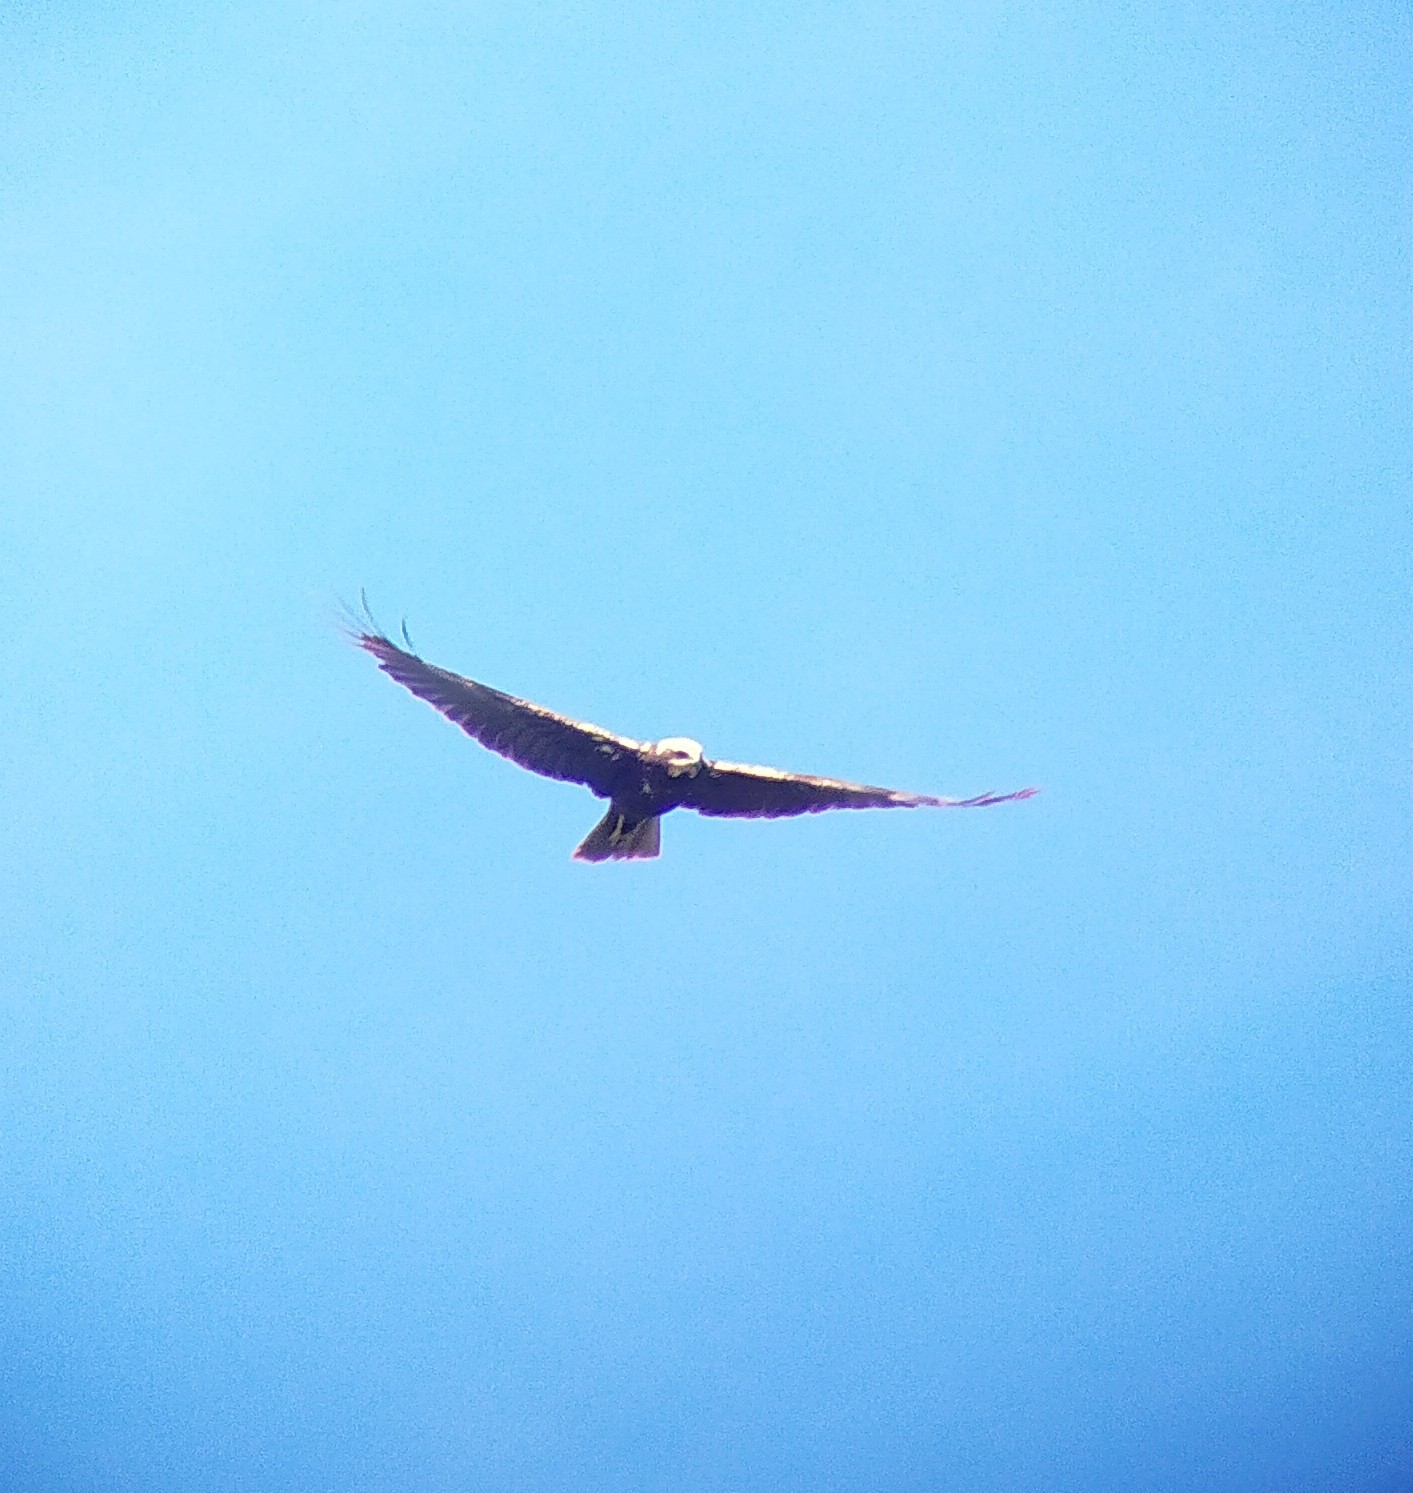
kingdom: Animalia
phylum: Chordata
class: Aves
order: Accipitriformes
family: Accipitridae
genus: Circus
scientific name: Circus aeruginosus
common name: Western marsh harrier
